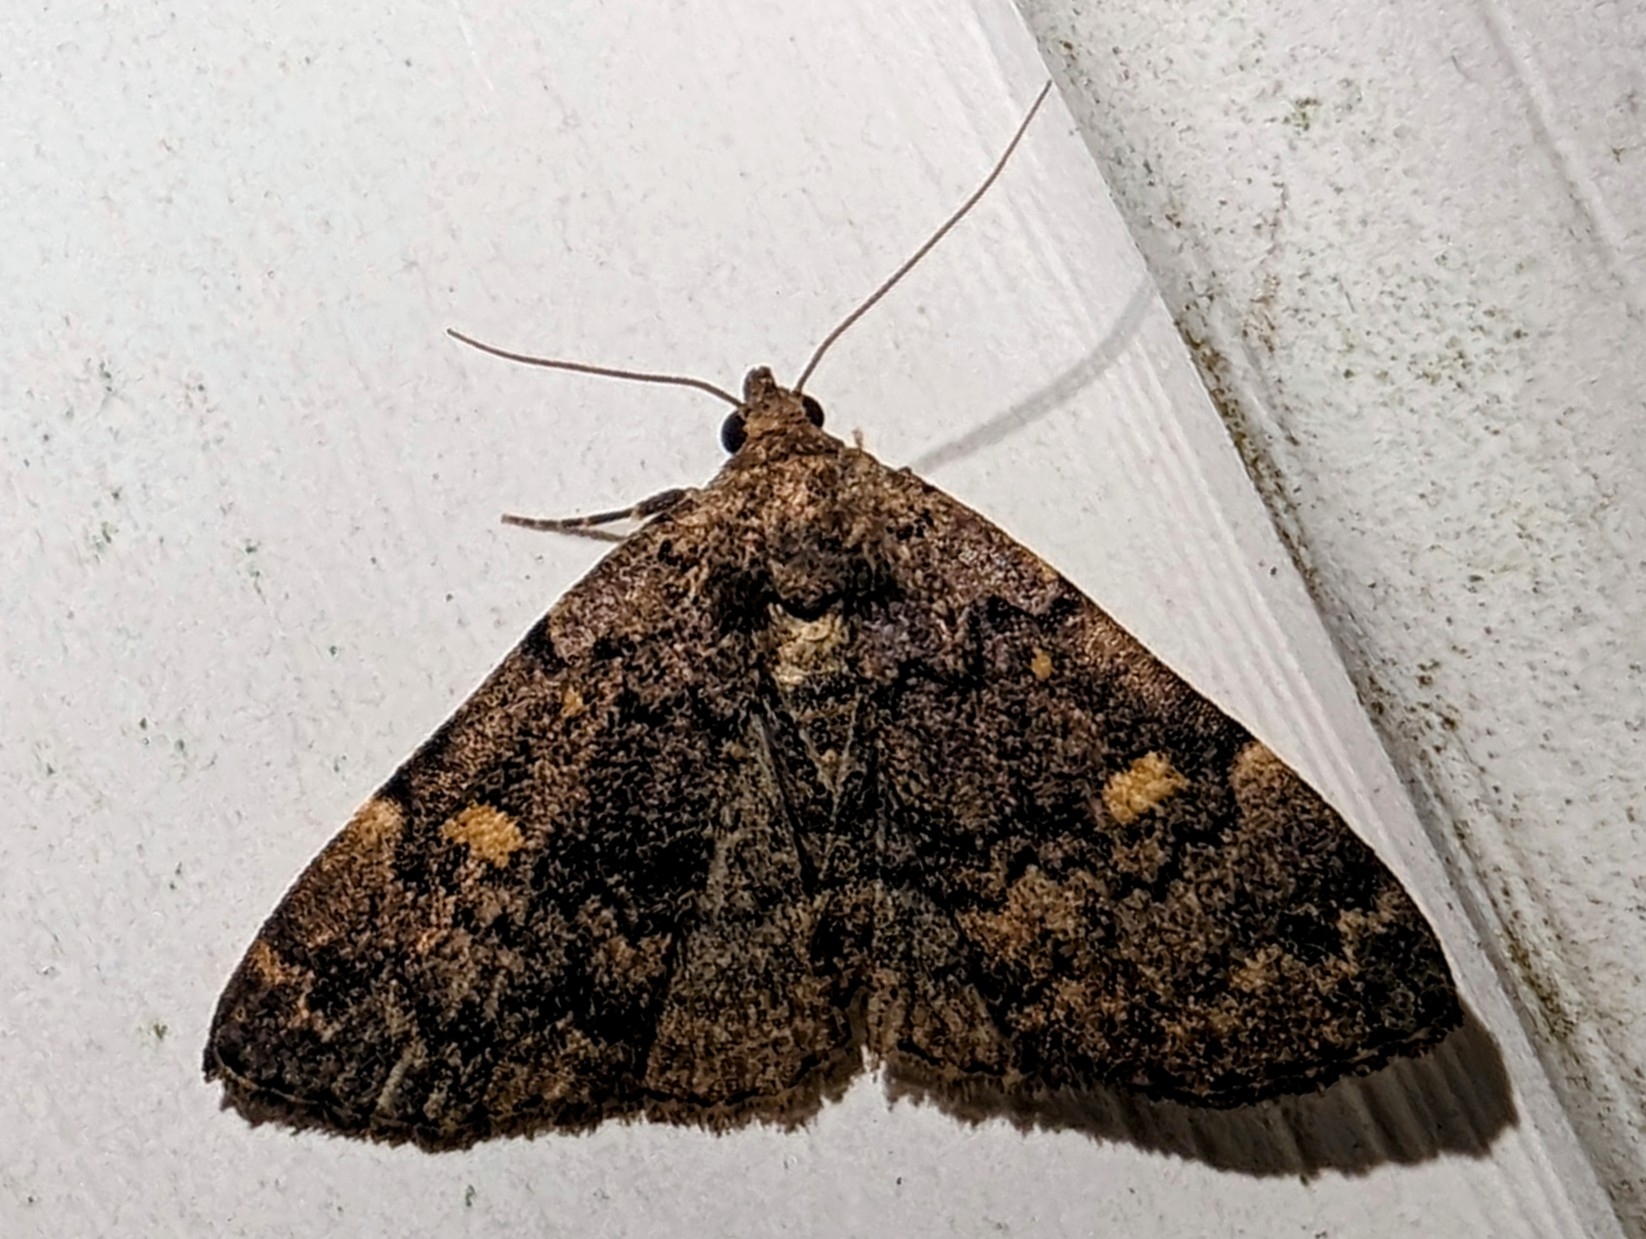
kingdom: Animalia
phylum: Arthropoda
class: Insecta
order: Lepidoptera
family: Erebidae
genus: Idia
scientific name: Idia aemula
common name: Common idia moth
